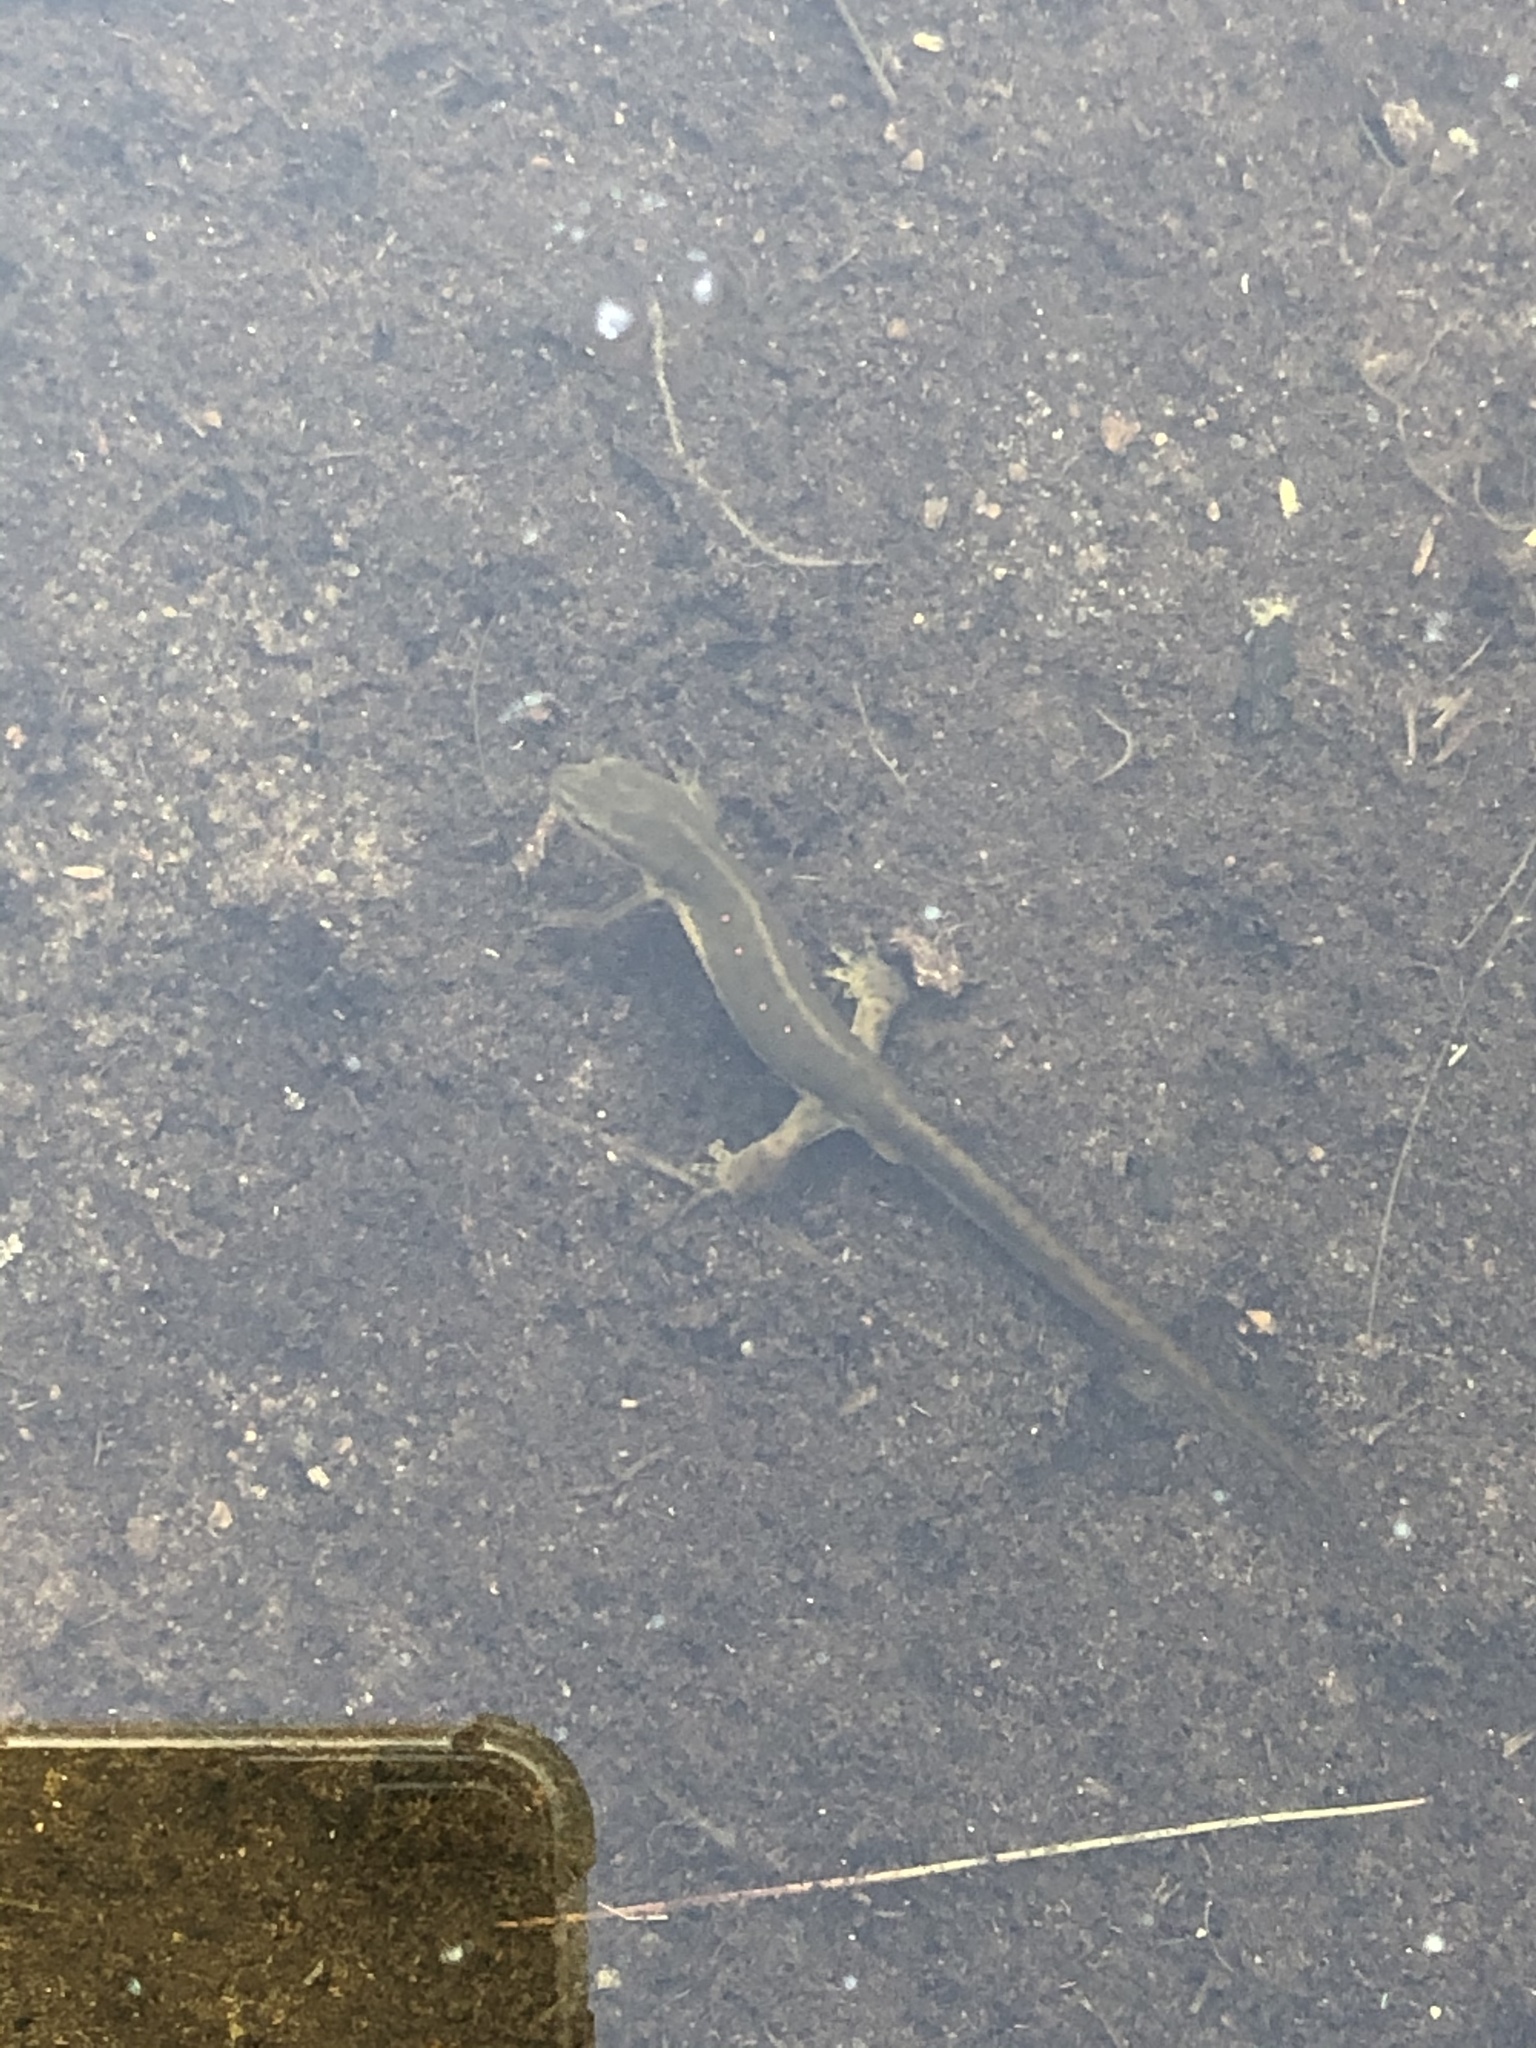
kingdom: Animalia
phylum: Chordata
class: Amphibia
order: Caudata
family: Salamandridae
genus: Notophthalmus
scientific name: Notophthalmus viridescens
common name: Eastern newt
